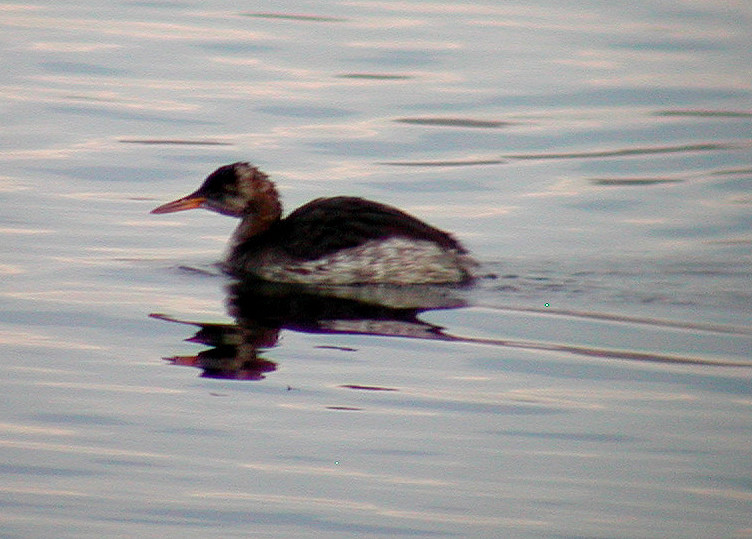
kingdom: Animalia
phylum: Chordata
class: Aves
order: Podicipediformes
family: Podicipedidae
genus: Podiceps
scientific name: Podiceps grisegena
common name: Red-necked grebe
